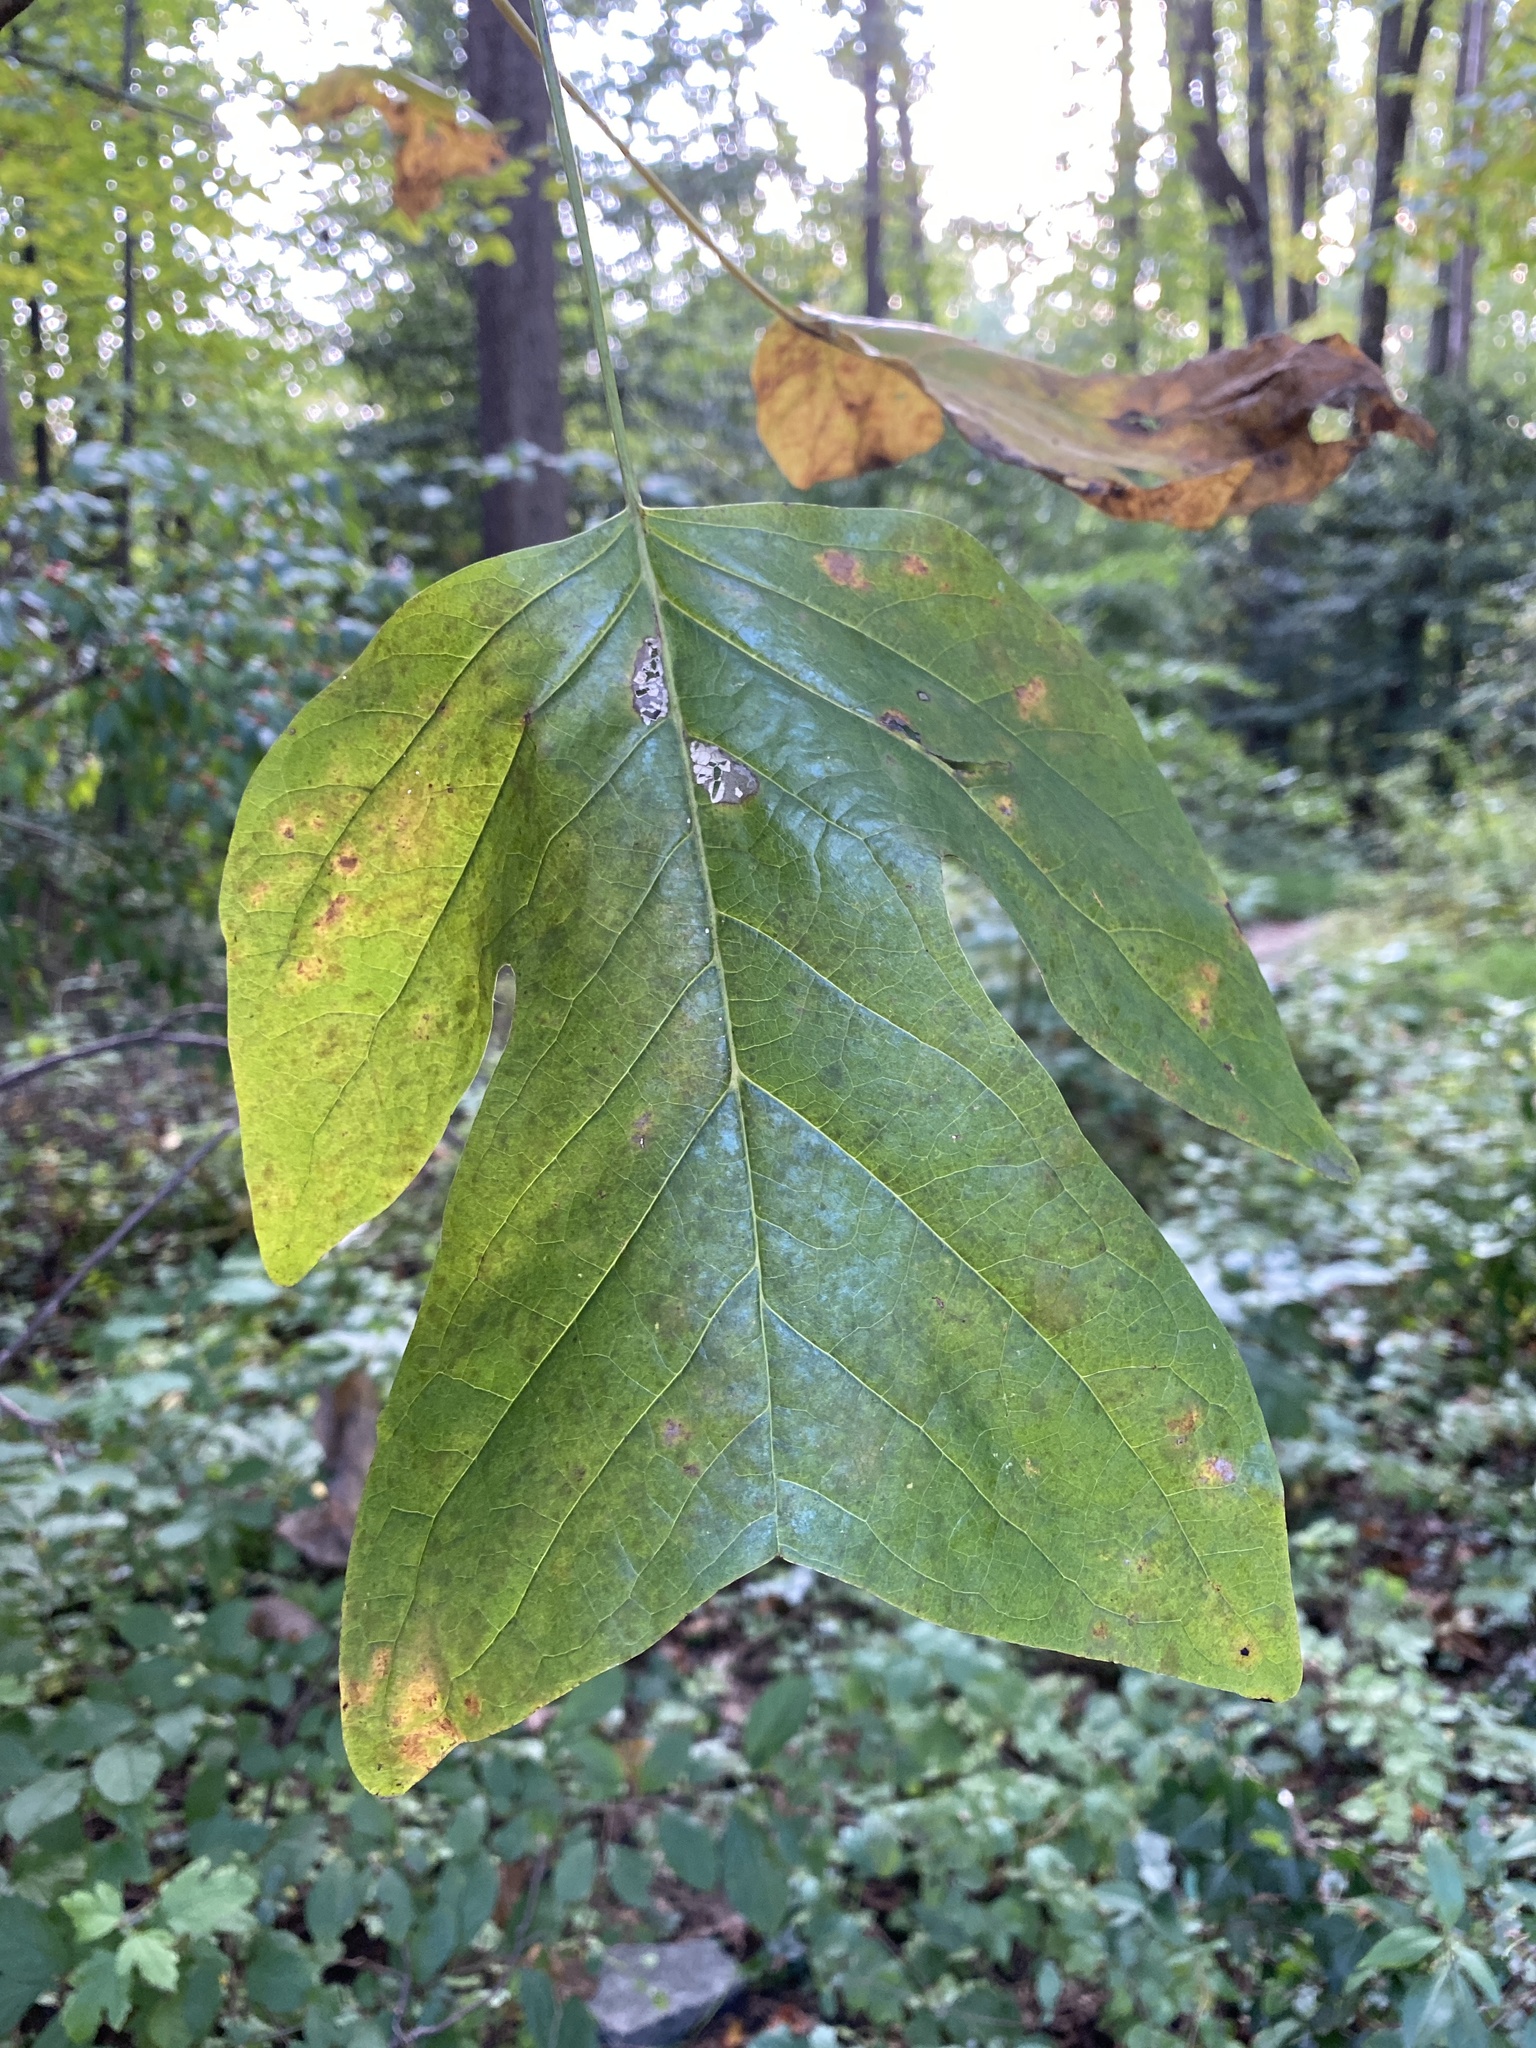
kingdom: Plantae
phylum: Tracheophyta
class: Magnoliopsida
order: Magnoliales
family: Magnoliaceae
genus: Liriodendron
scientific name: Liriodendron tulipifera
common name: Tulip tree
